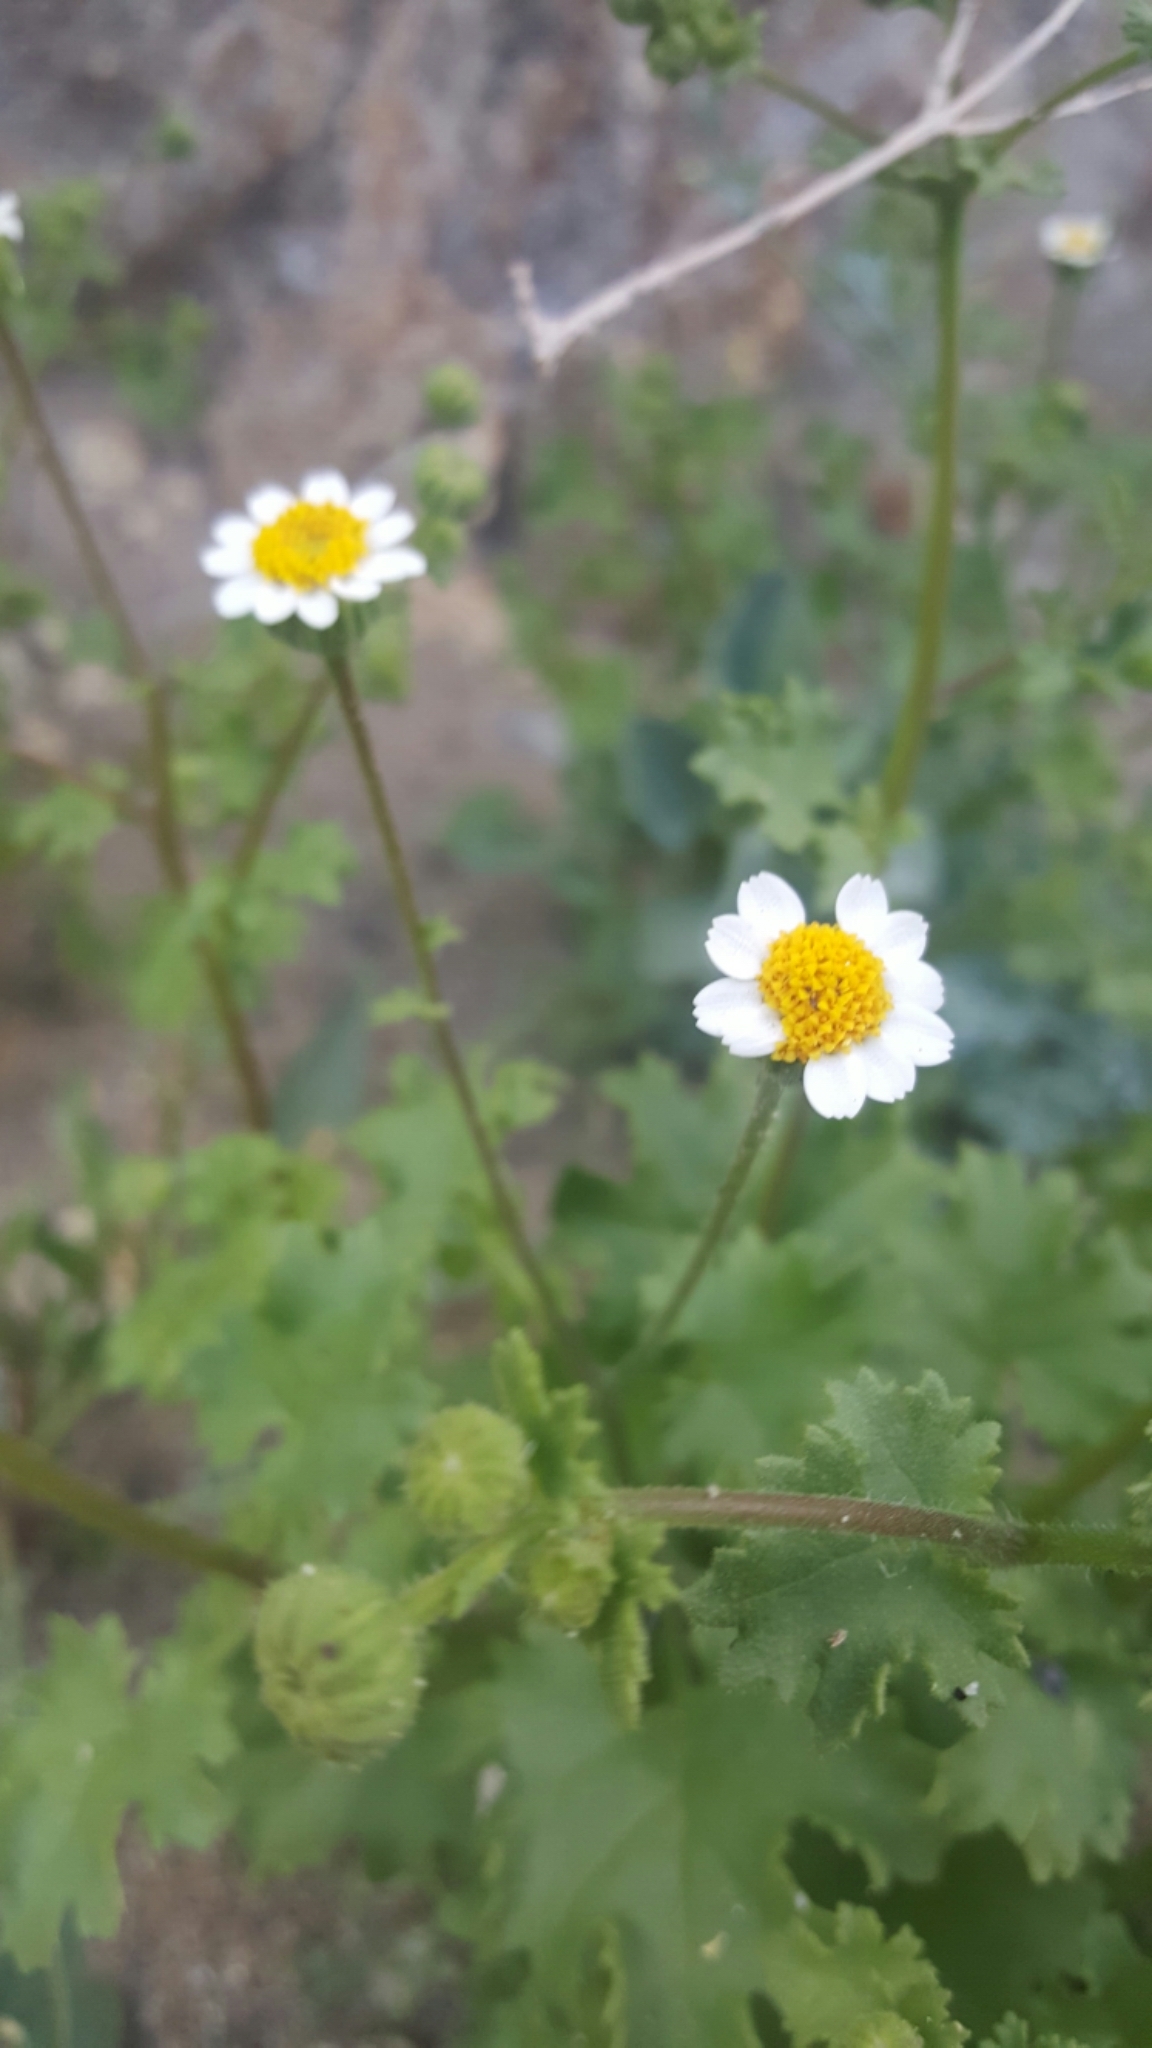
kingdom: Plantae
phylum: Tracheophyta
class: Magnoliopsida
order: Asterales
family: Asteraceae
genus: Laphamia
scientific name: Laphamia emoryi
